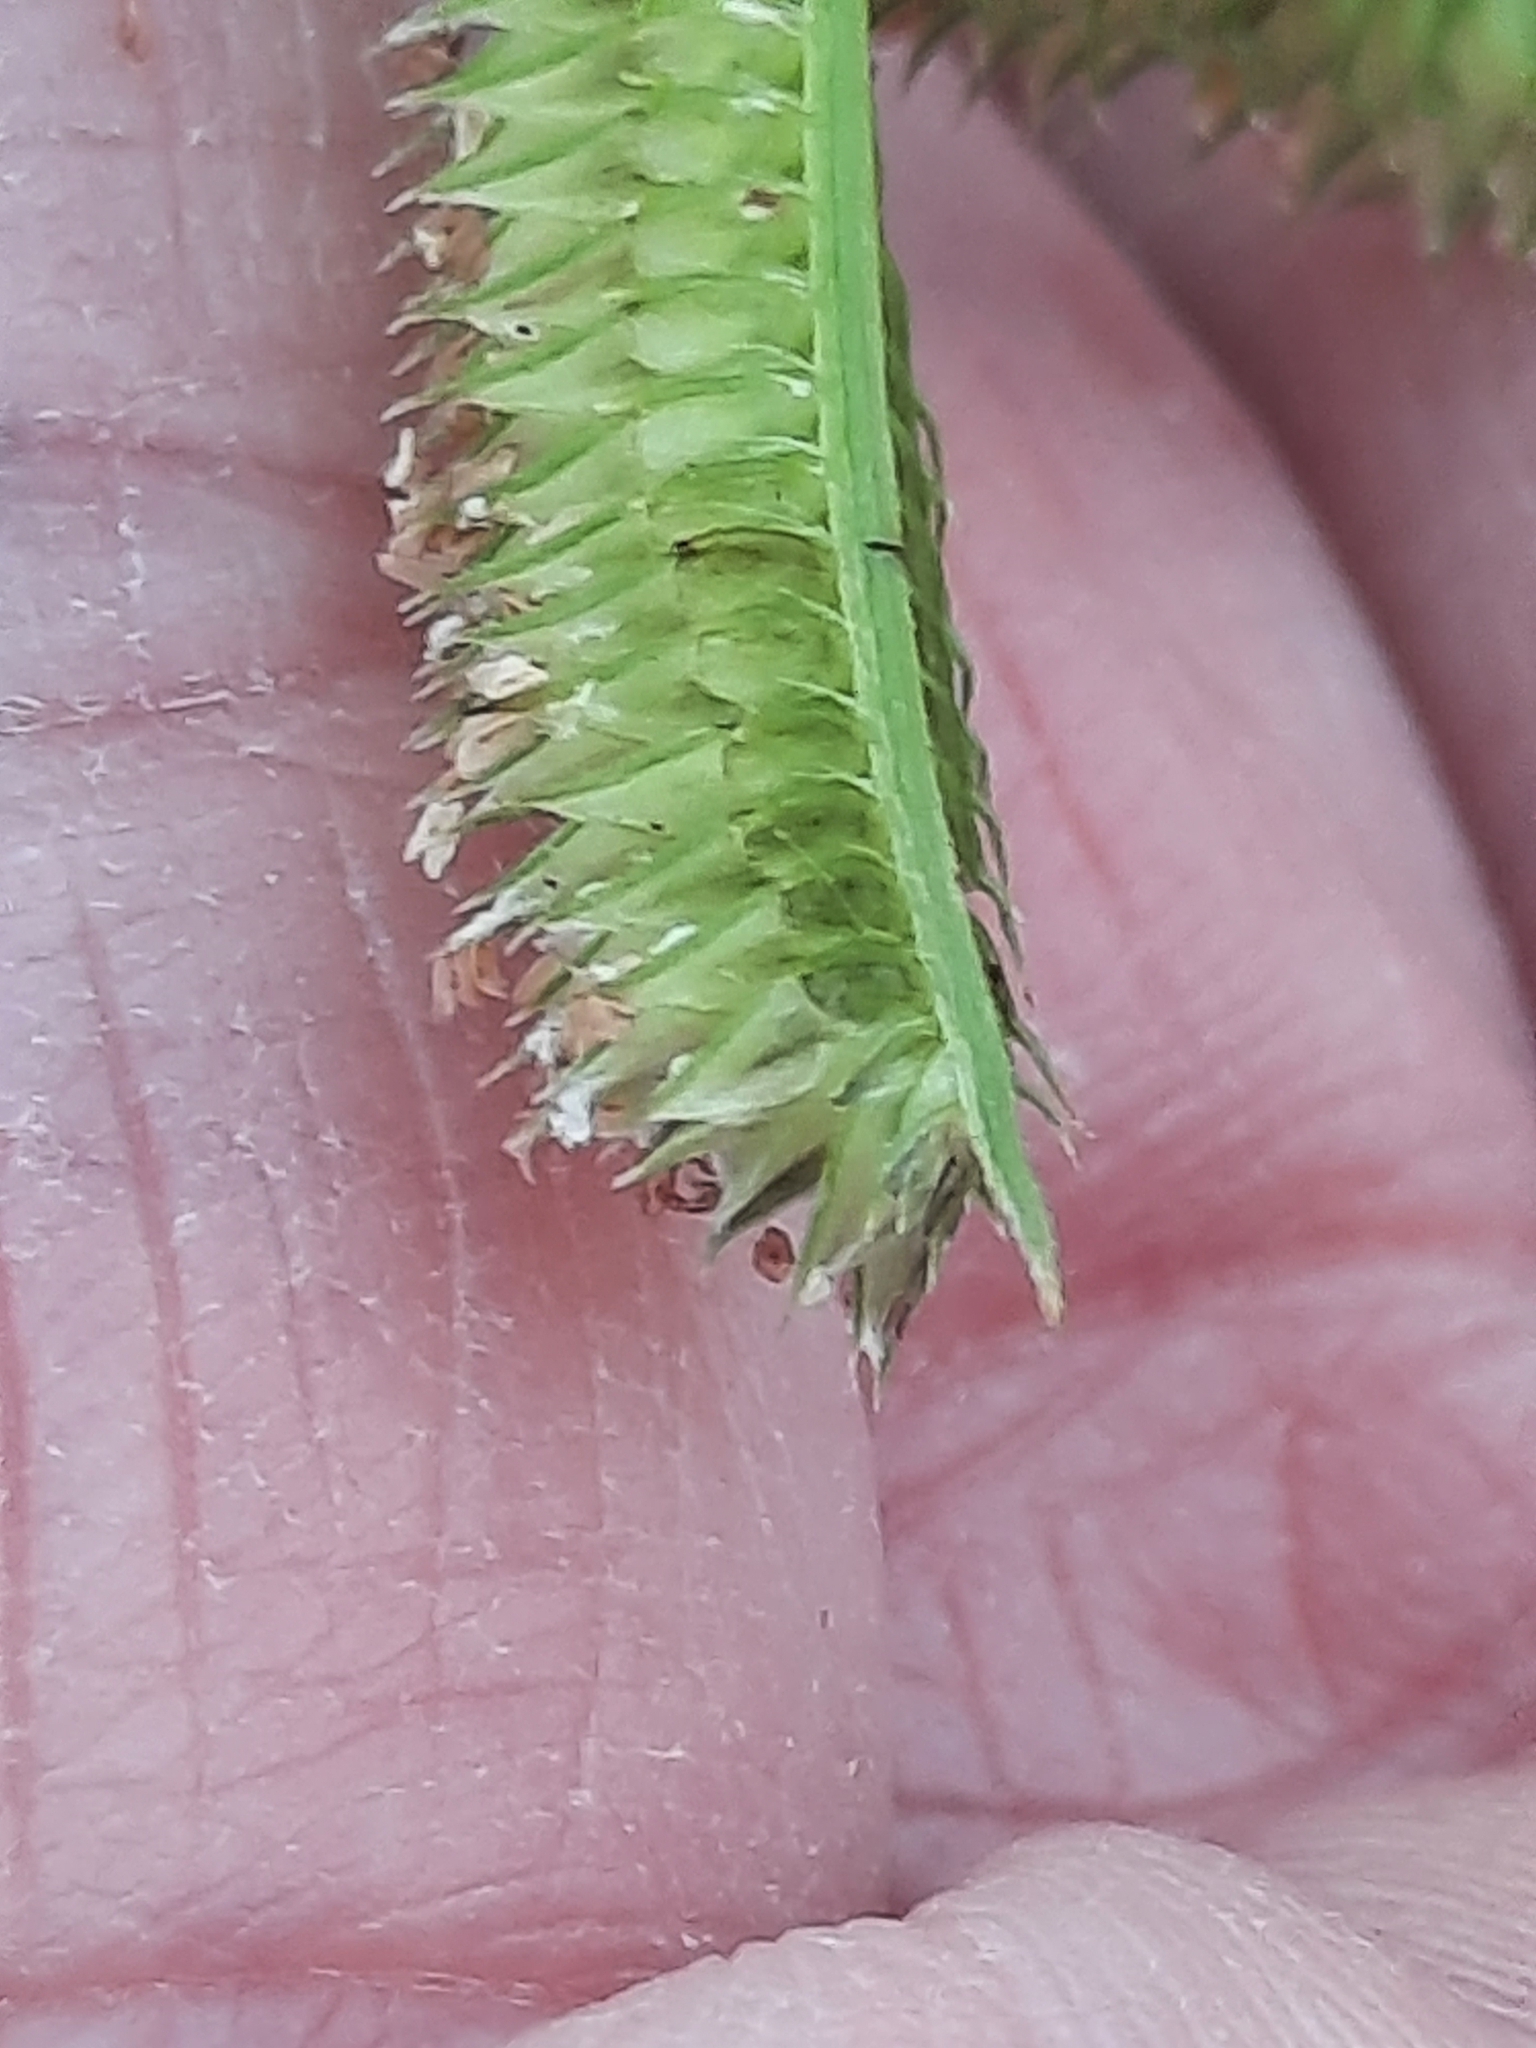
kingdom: Plantae
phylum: Tracheophyta
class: Liliopsida
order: Poales
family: Poaceae
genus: Dactyloctenium
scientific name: Dactyloctenium aegyptium
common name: Egyptian grass
